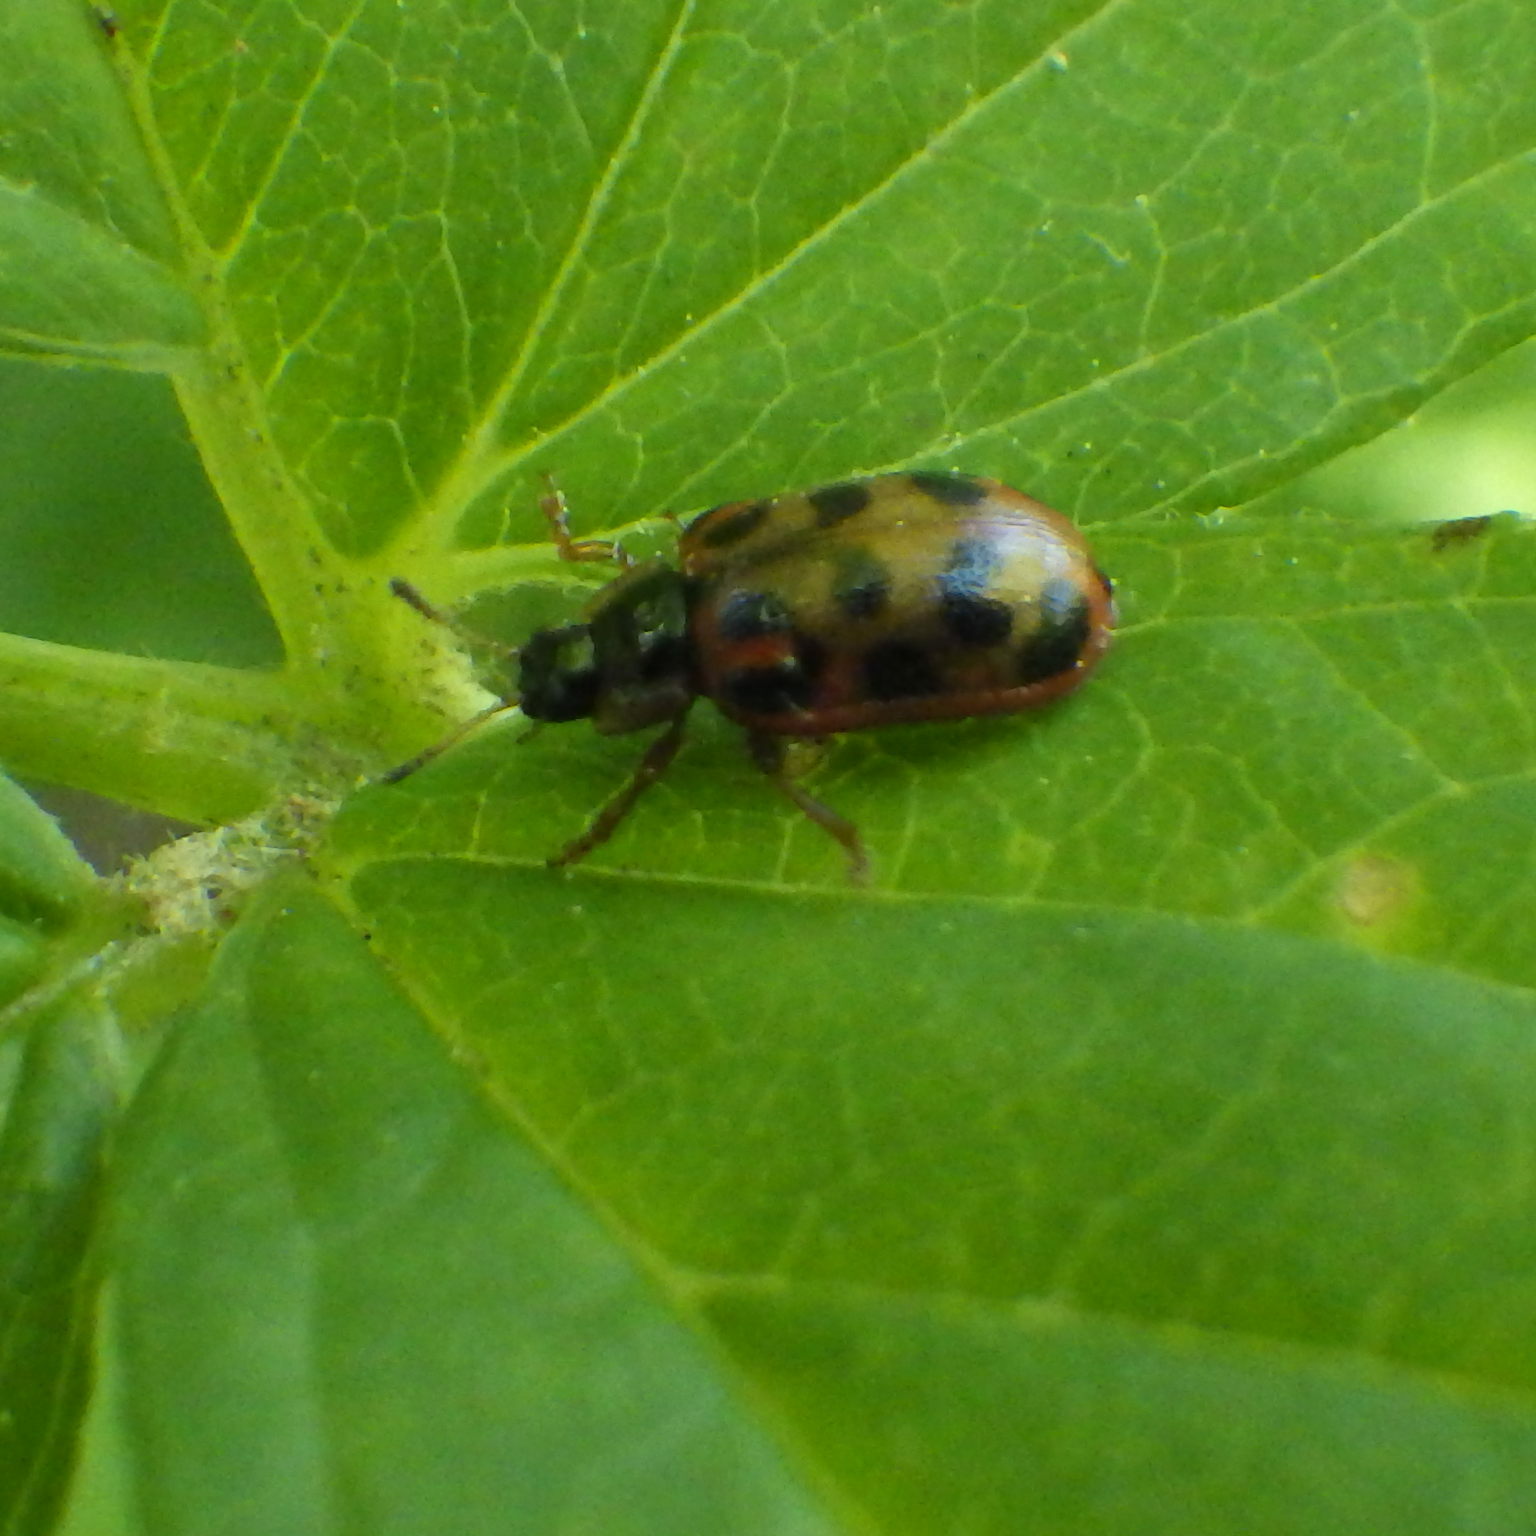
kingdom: Animalia
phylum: Arthropoda
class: Insecta
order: Coleoptera
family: Chrysomelidae
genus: Chrysomela
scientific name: Chrysomela mainensis
